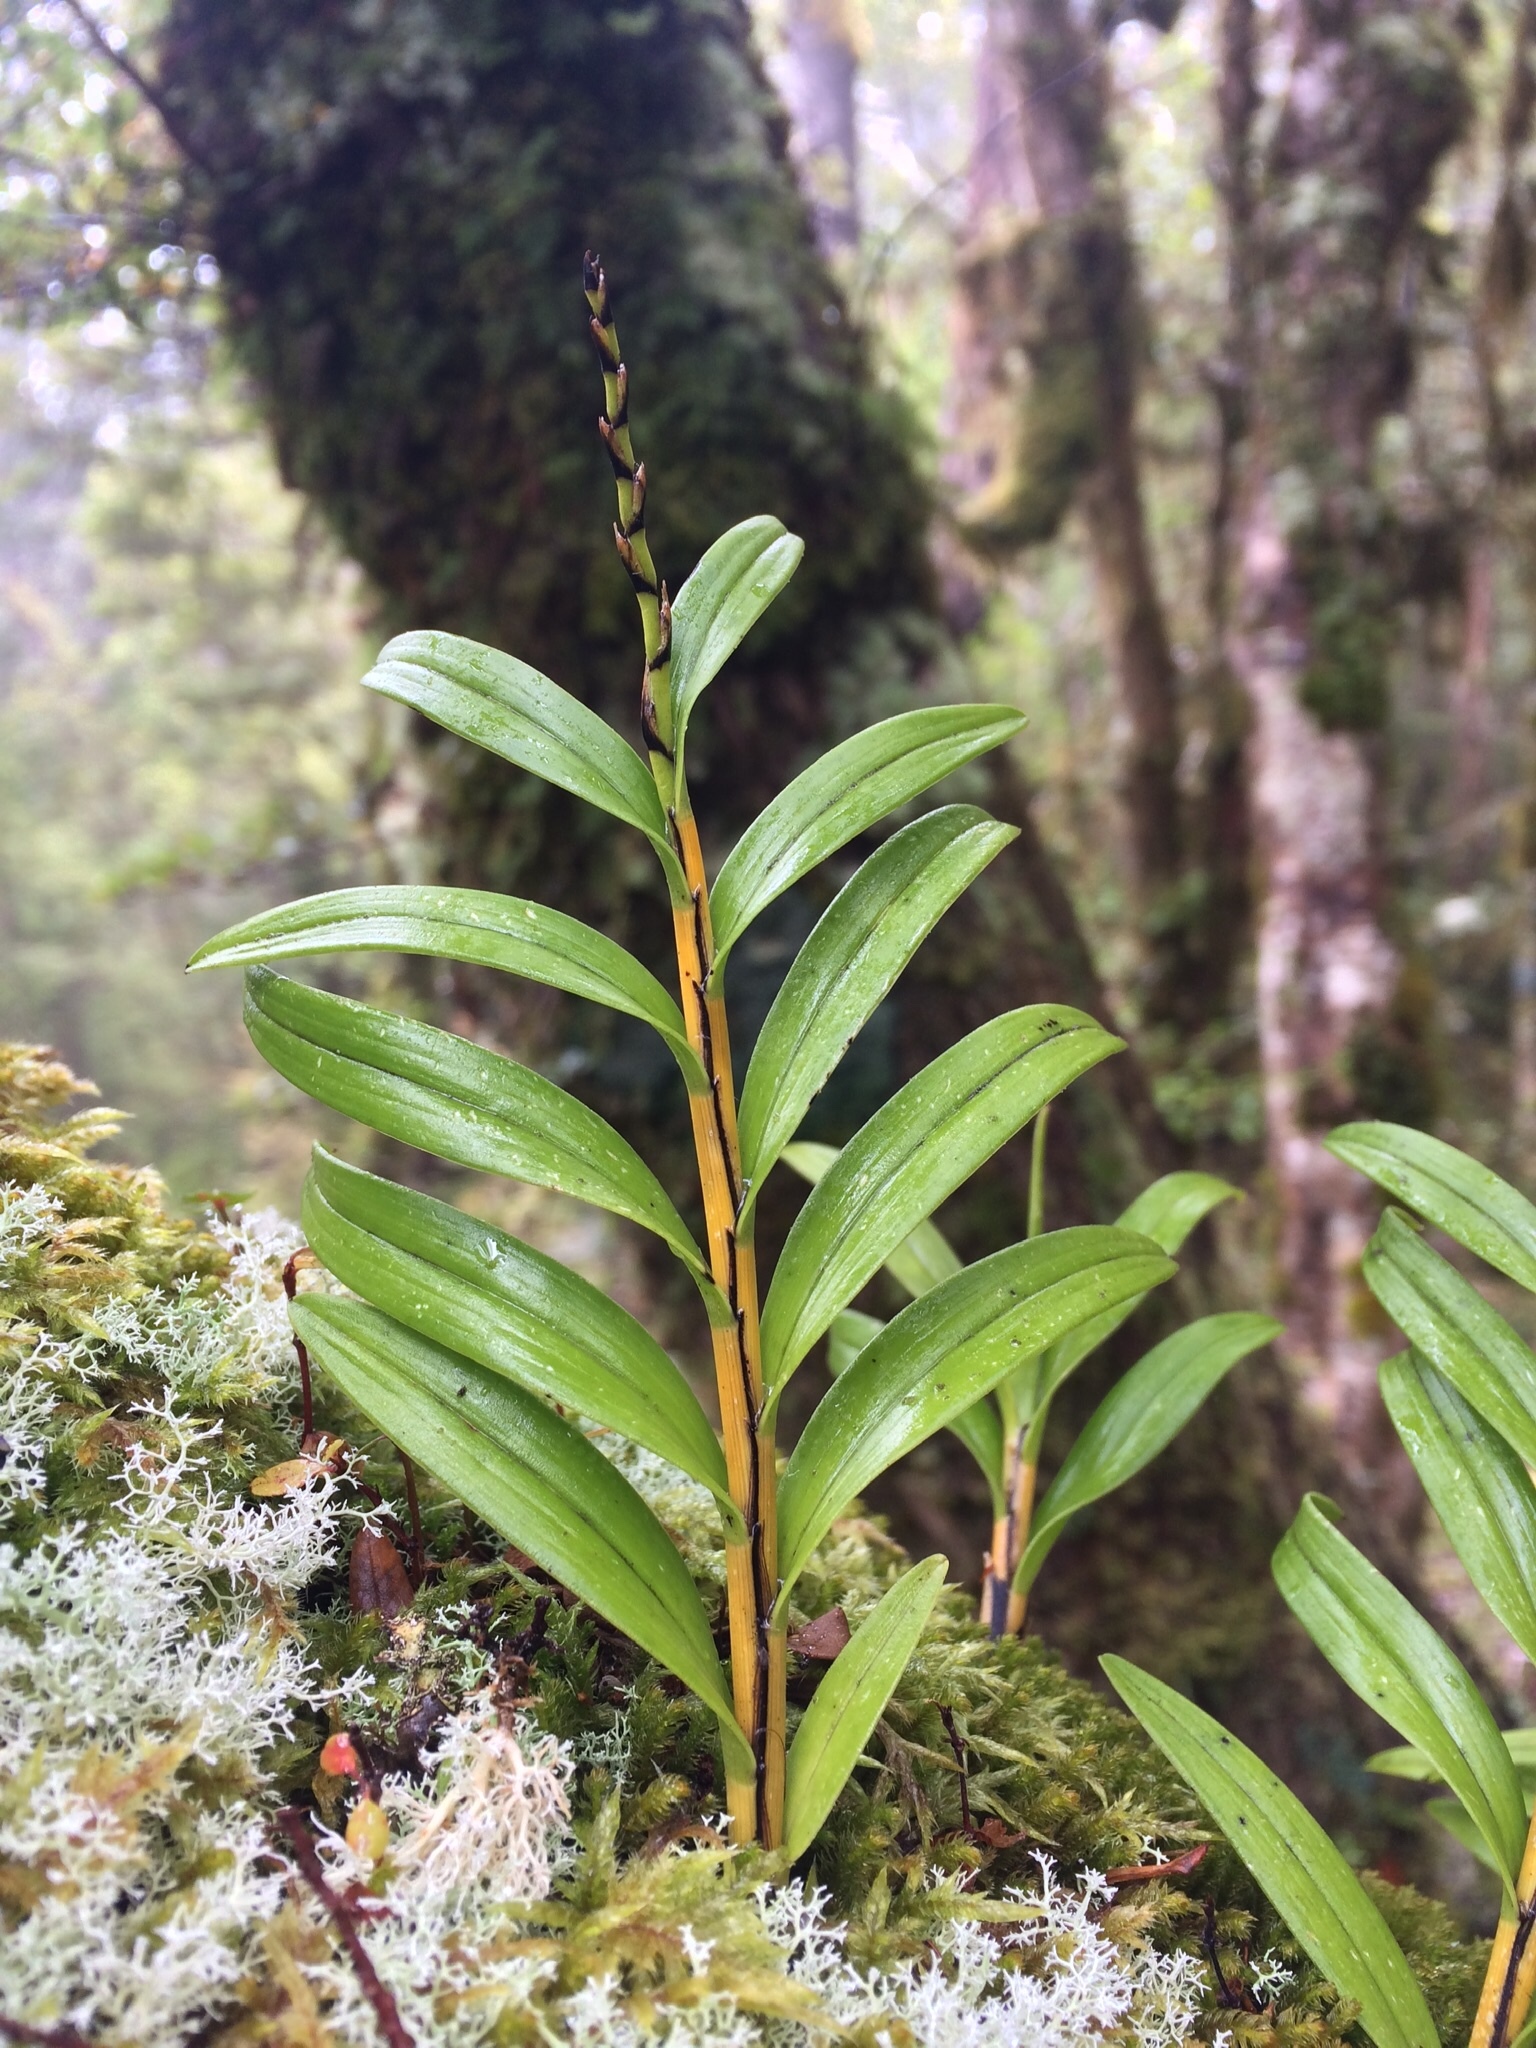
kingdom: Plantae
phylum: Tracheophyta
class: Liliopsida
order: Asparagales
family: Orchidaceae
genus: Earina
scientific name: Earina autumnalis
